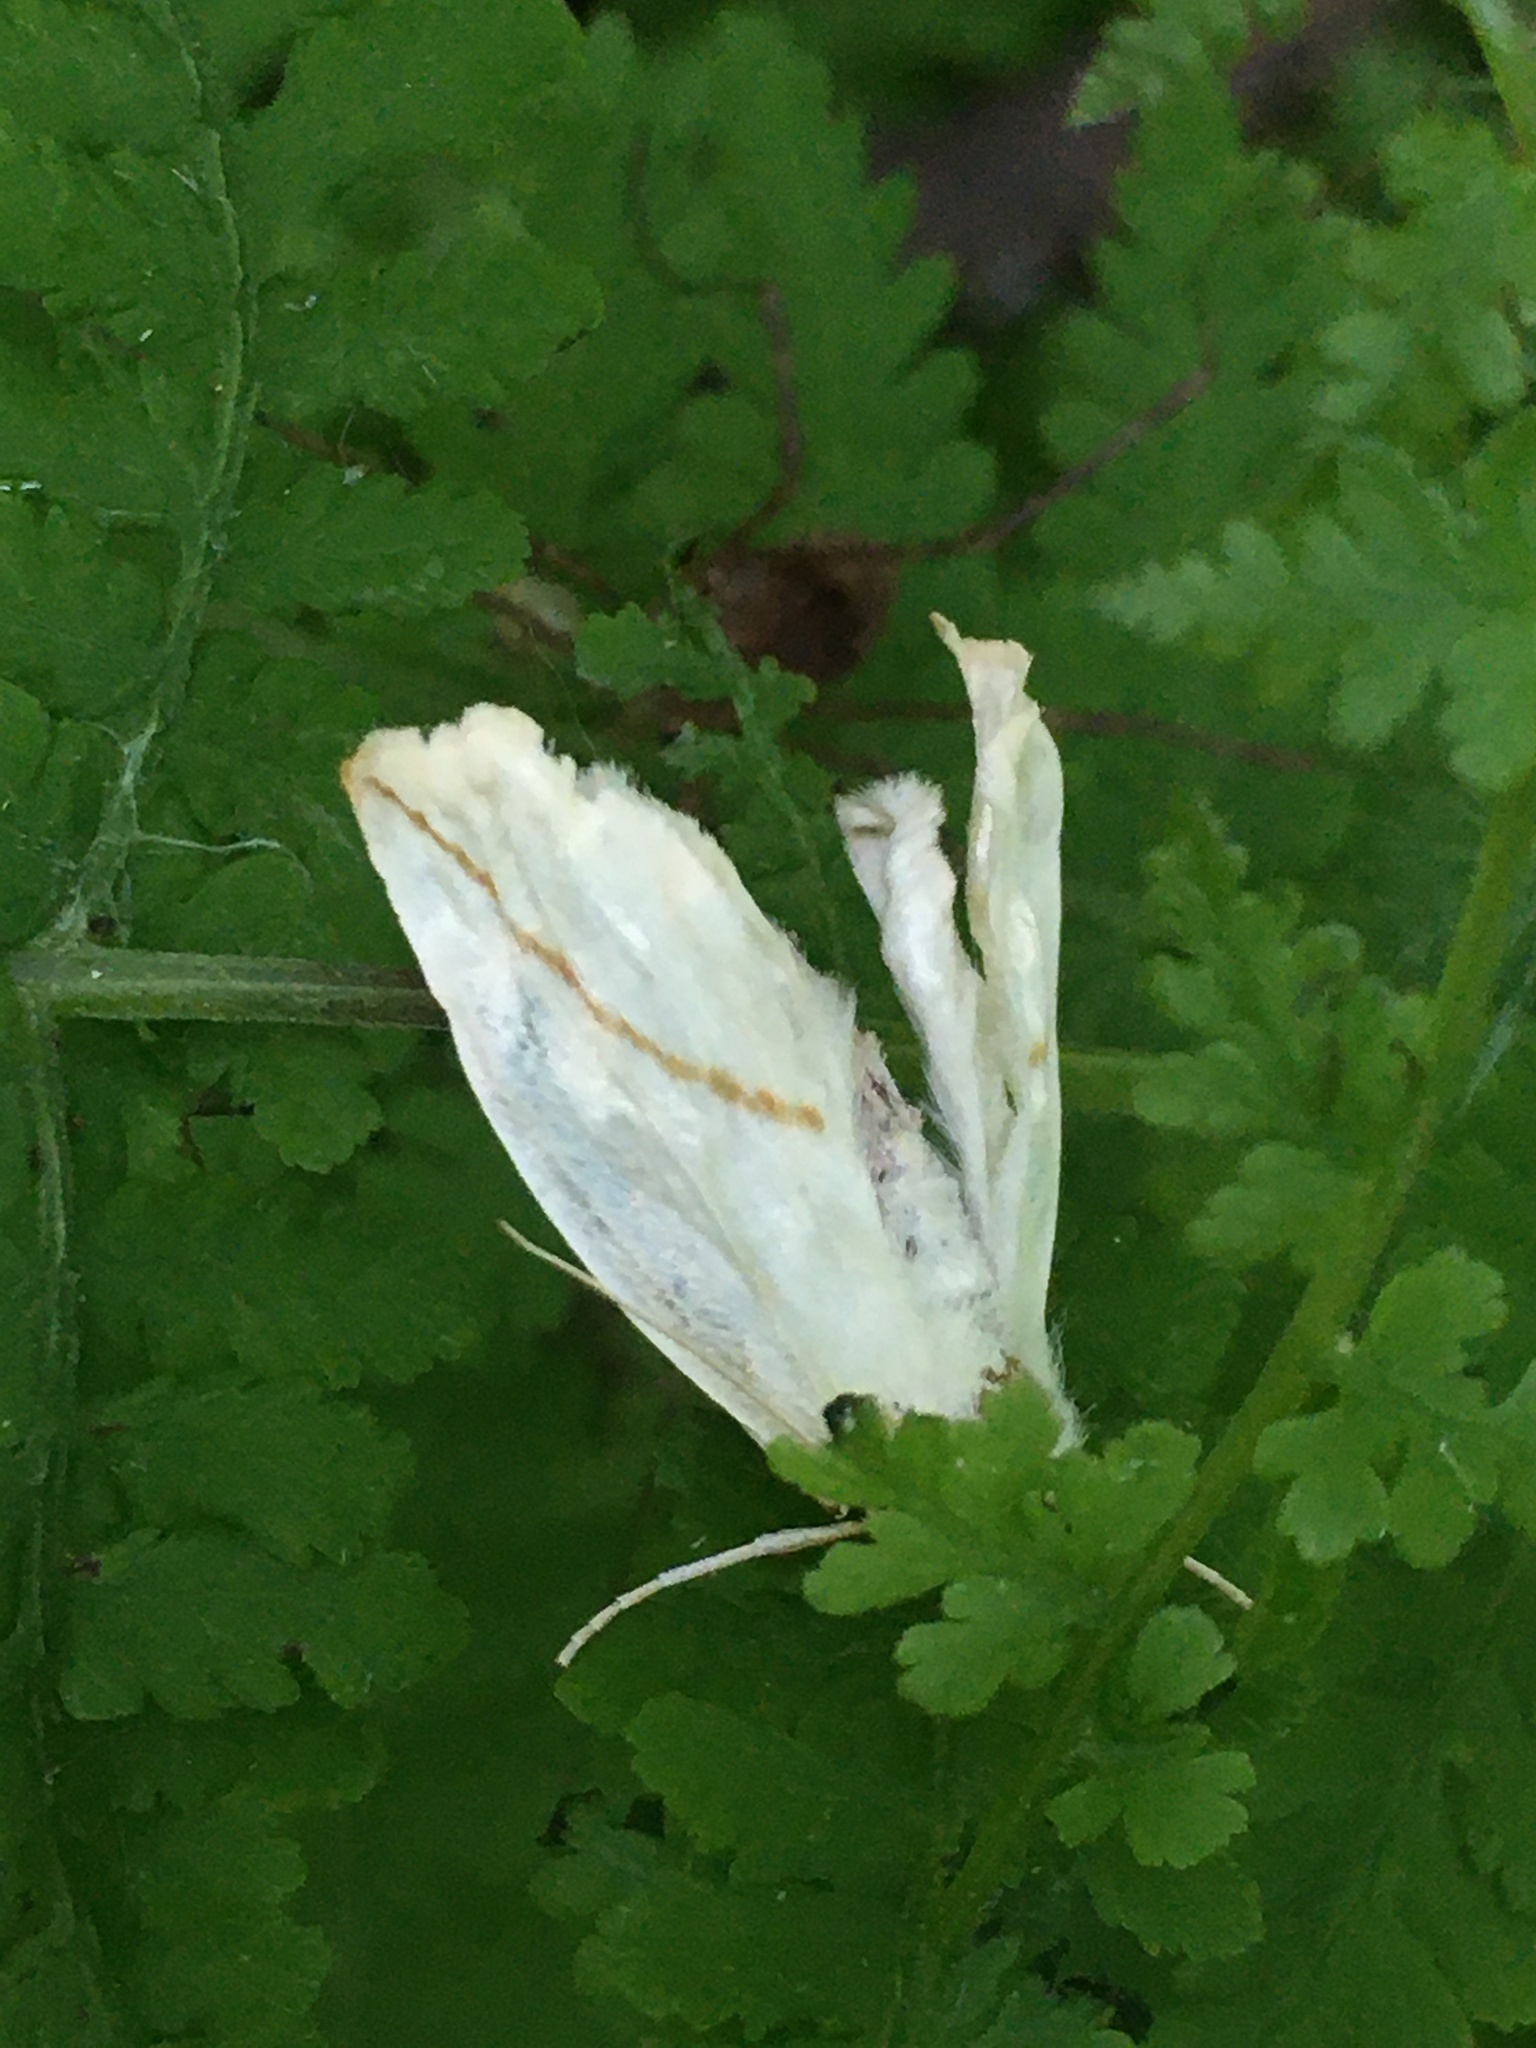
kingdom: Animalia
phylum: Arthropoda
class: Insecta
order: Lepidoptera
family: Geometridae
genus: Tetracis
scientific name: Tetracis cachexiata
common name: White slant-line
